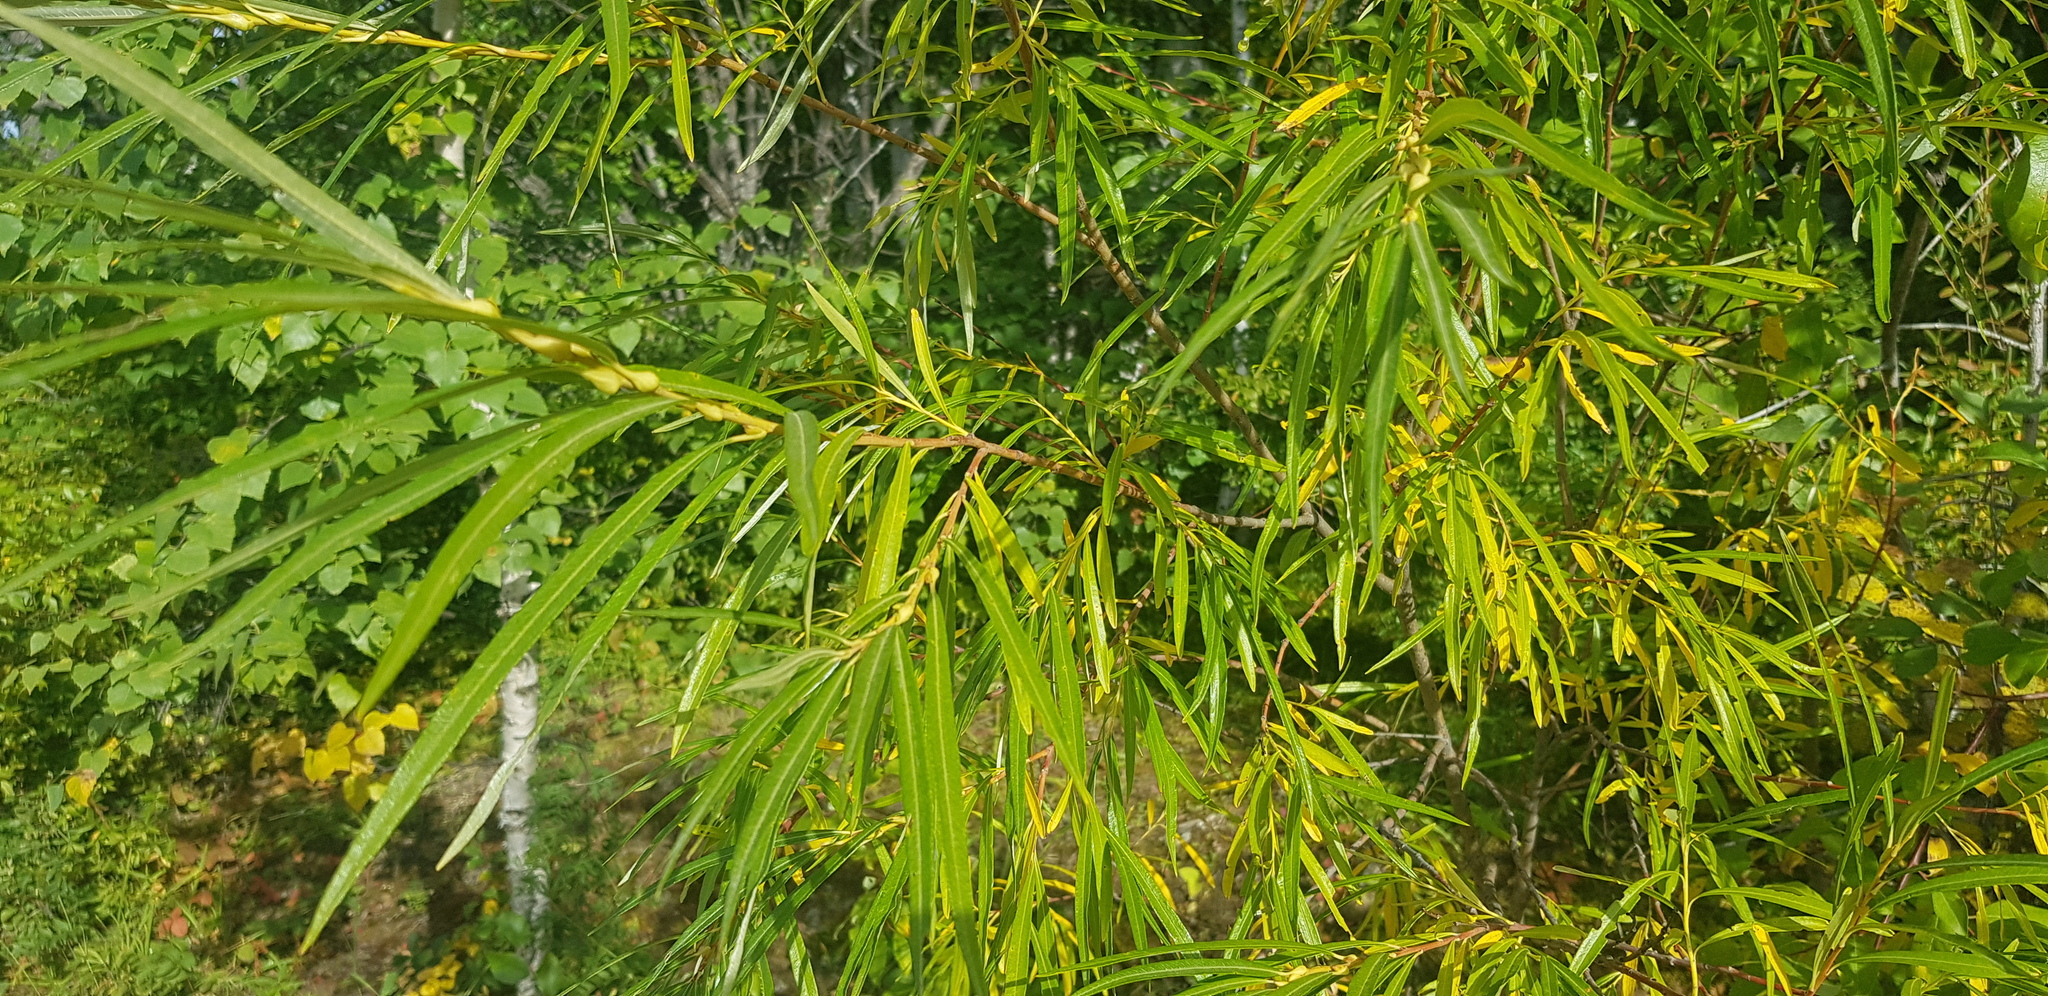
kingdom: Plantae
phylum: Tracheophyta
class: Magnoliopsida
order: Malpighiales
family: Salicaceae
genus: Salix
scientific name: Salix viminalis
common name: Osier
